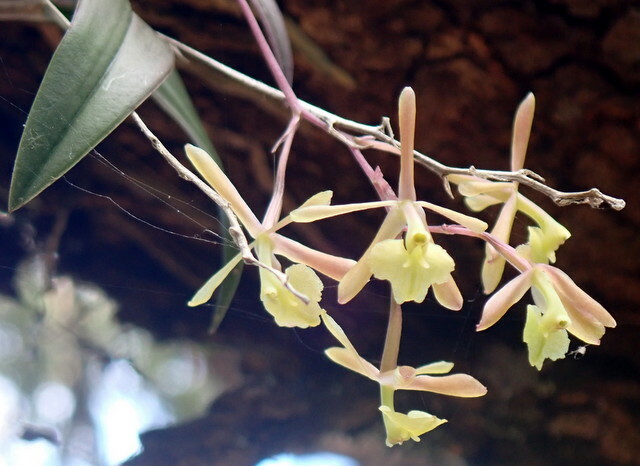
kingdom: Plantae
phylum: Tracheophyta
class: Liliopsida
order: Asparagales
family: Orchidaceae
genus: Epidendrum
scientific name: Epidendrum conopseum
